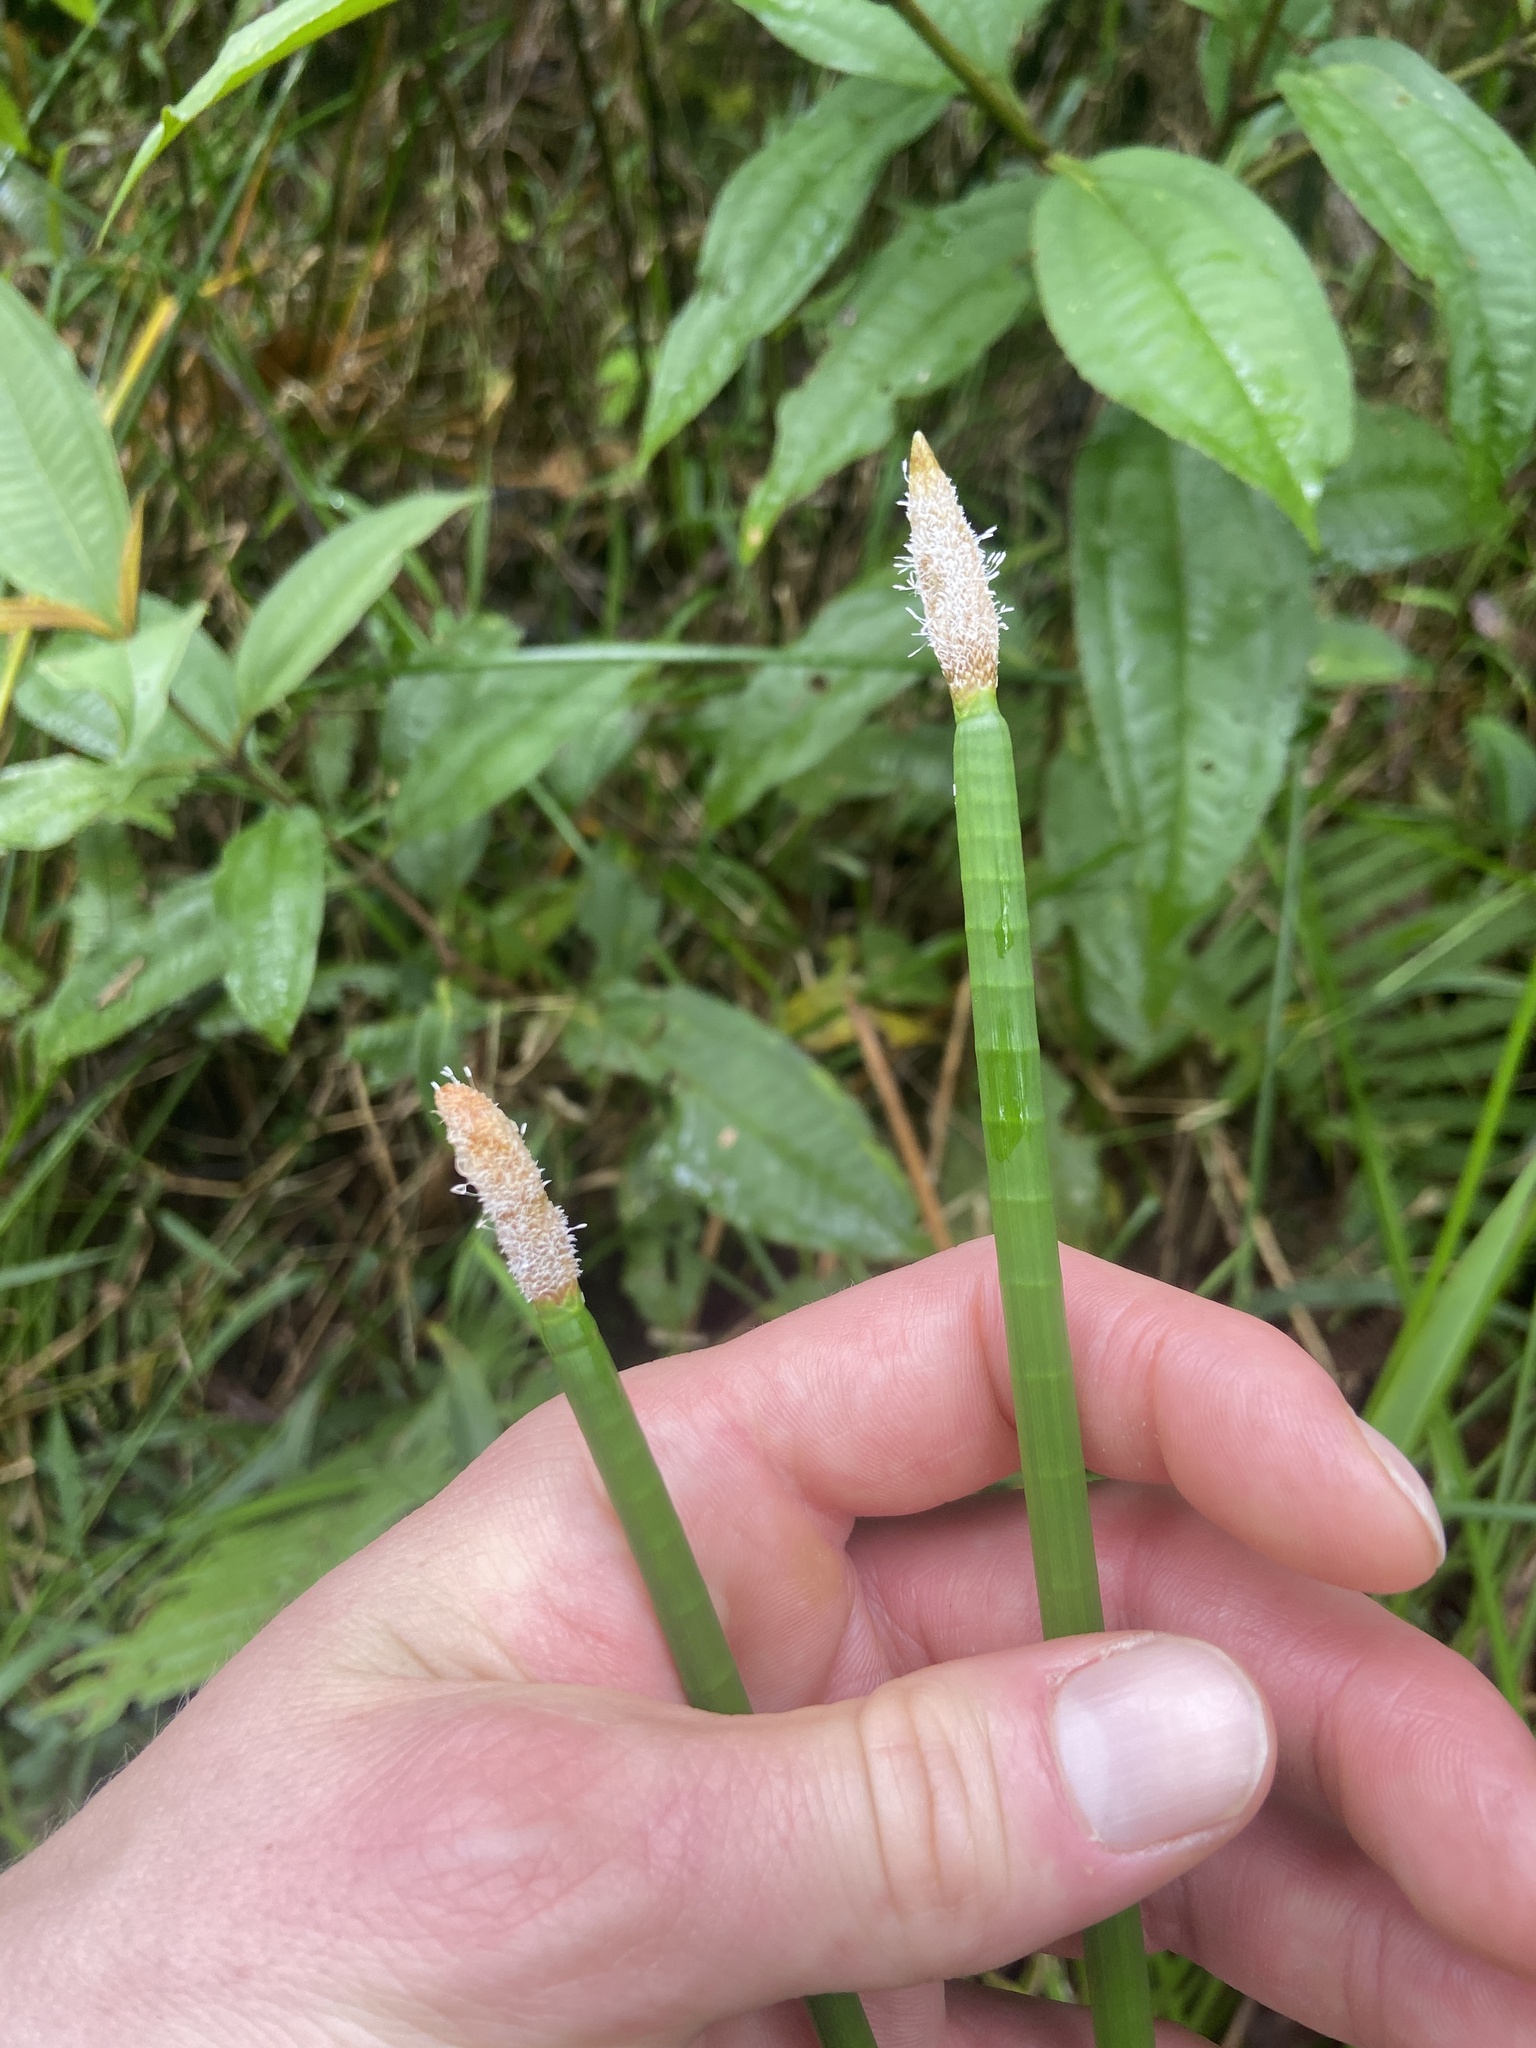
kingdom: Plantae
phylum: Tracheophyta
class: Liliopsida
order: Poales
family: Cyperaceae
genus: Eleocharis
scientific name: Eleocharis elegans
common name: Elegant spike-rush
